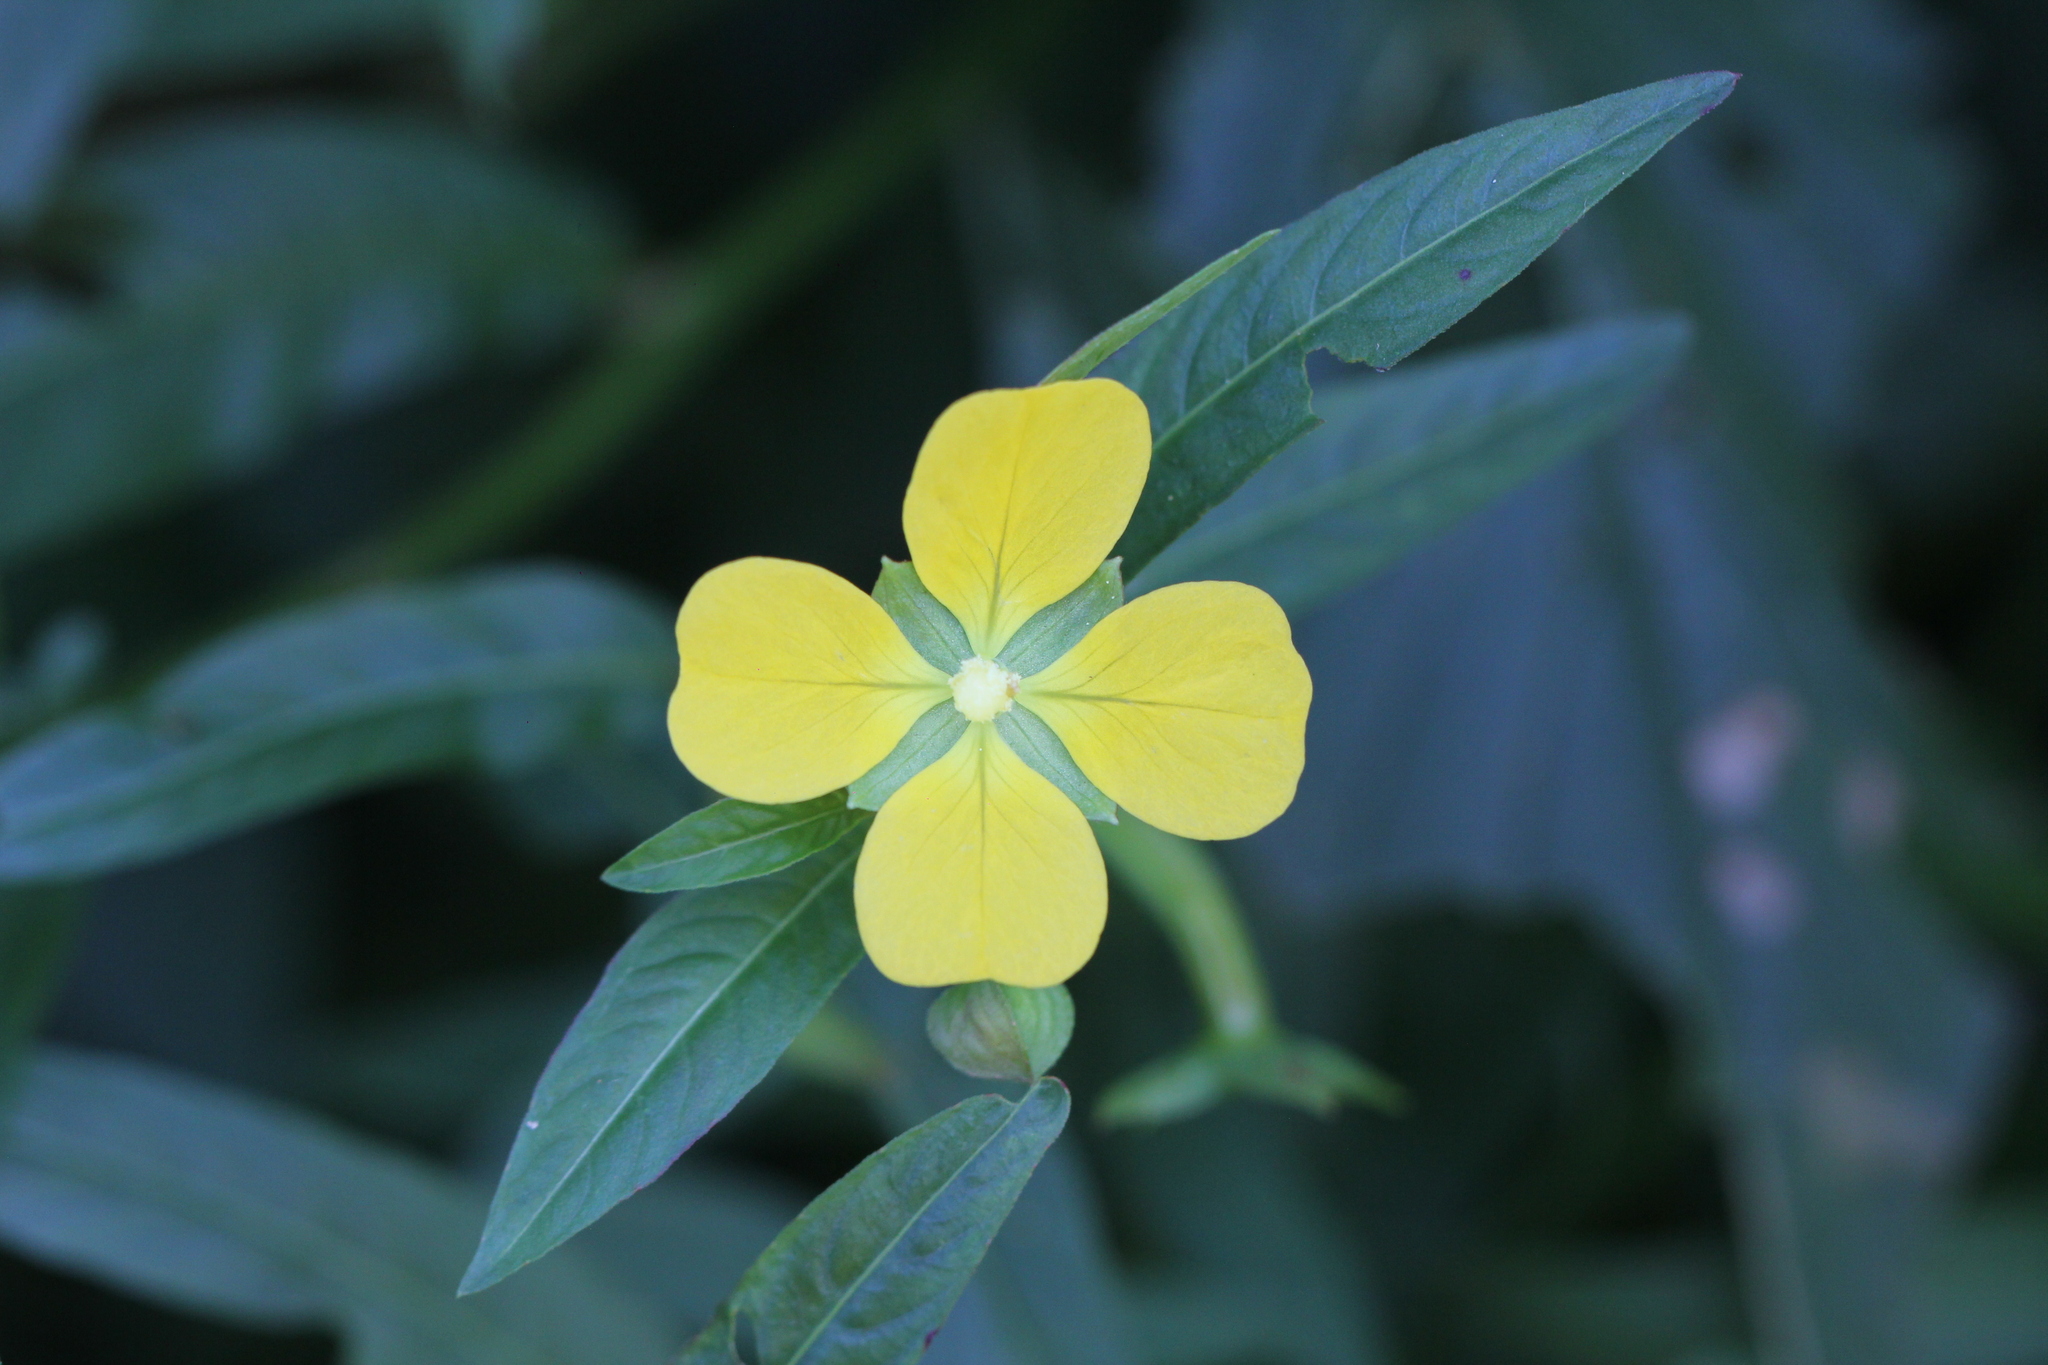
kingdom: Plantae
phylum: Tracheophyta
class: Magnoliopsida
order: Myrtales
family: Onagraceae
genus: Ludwigia
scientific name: Ludwigia leptocarpa
